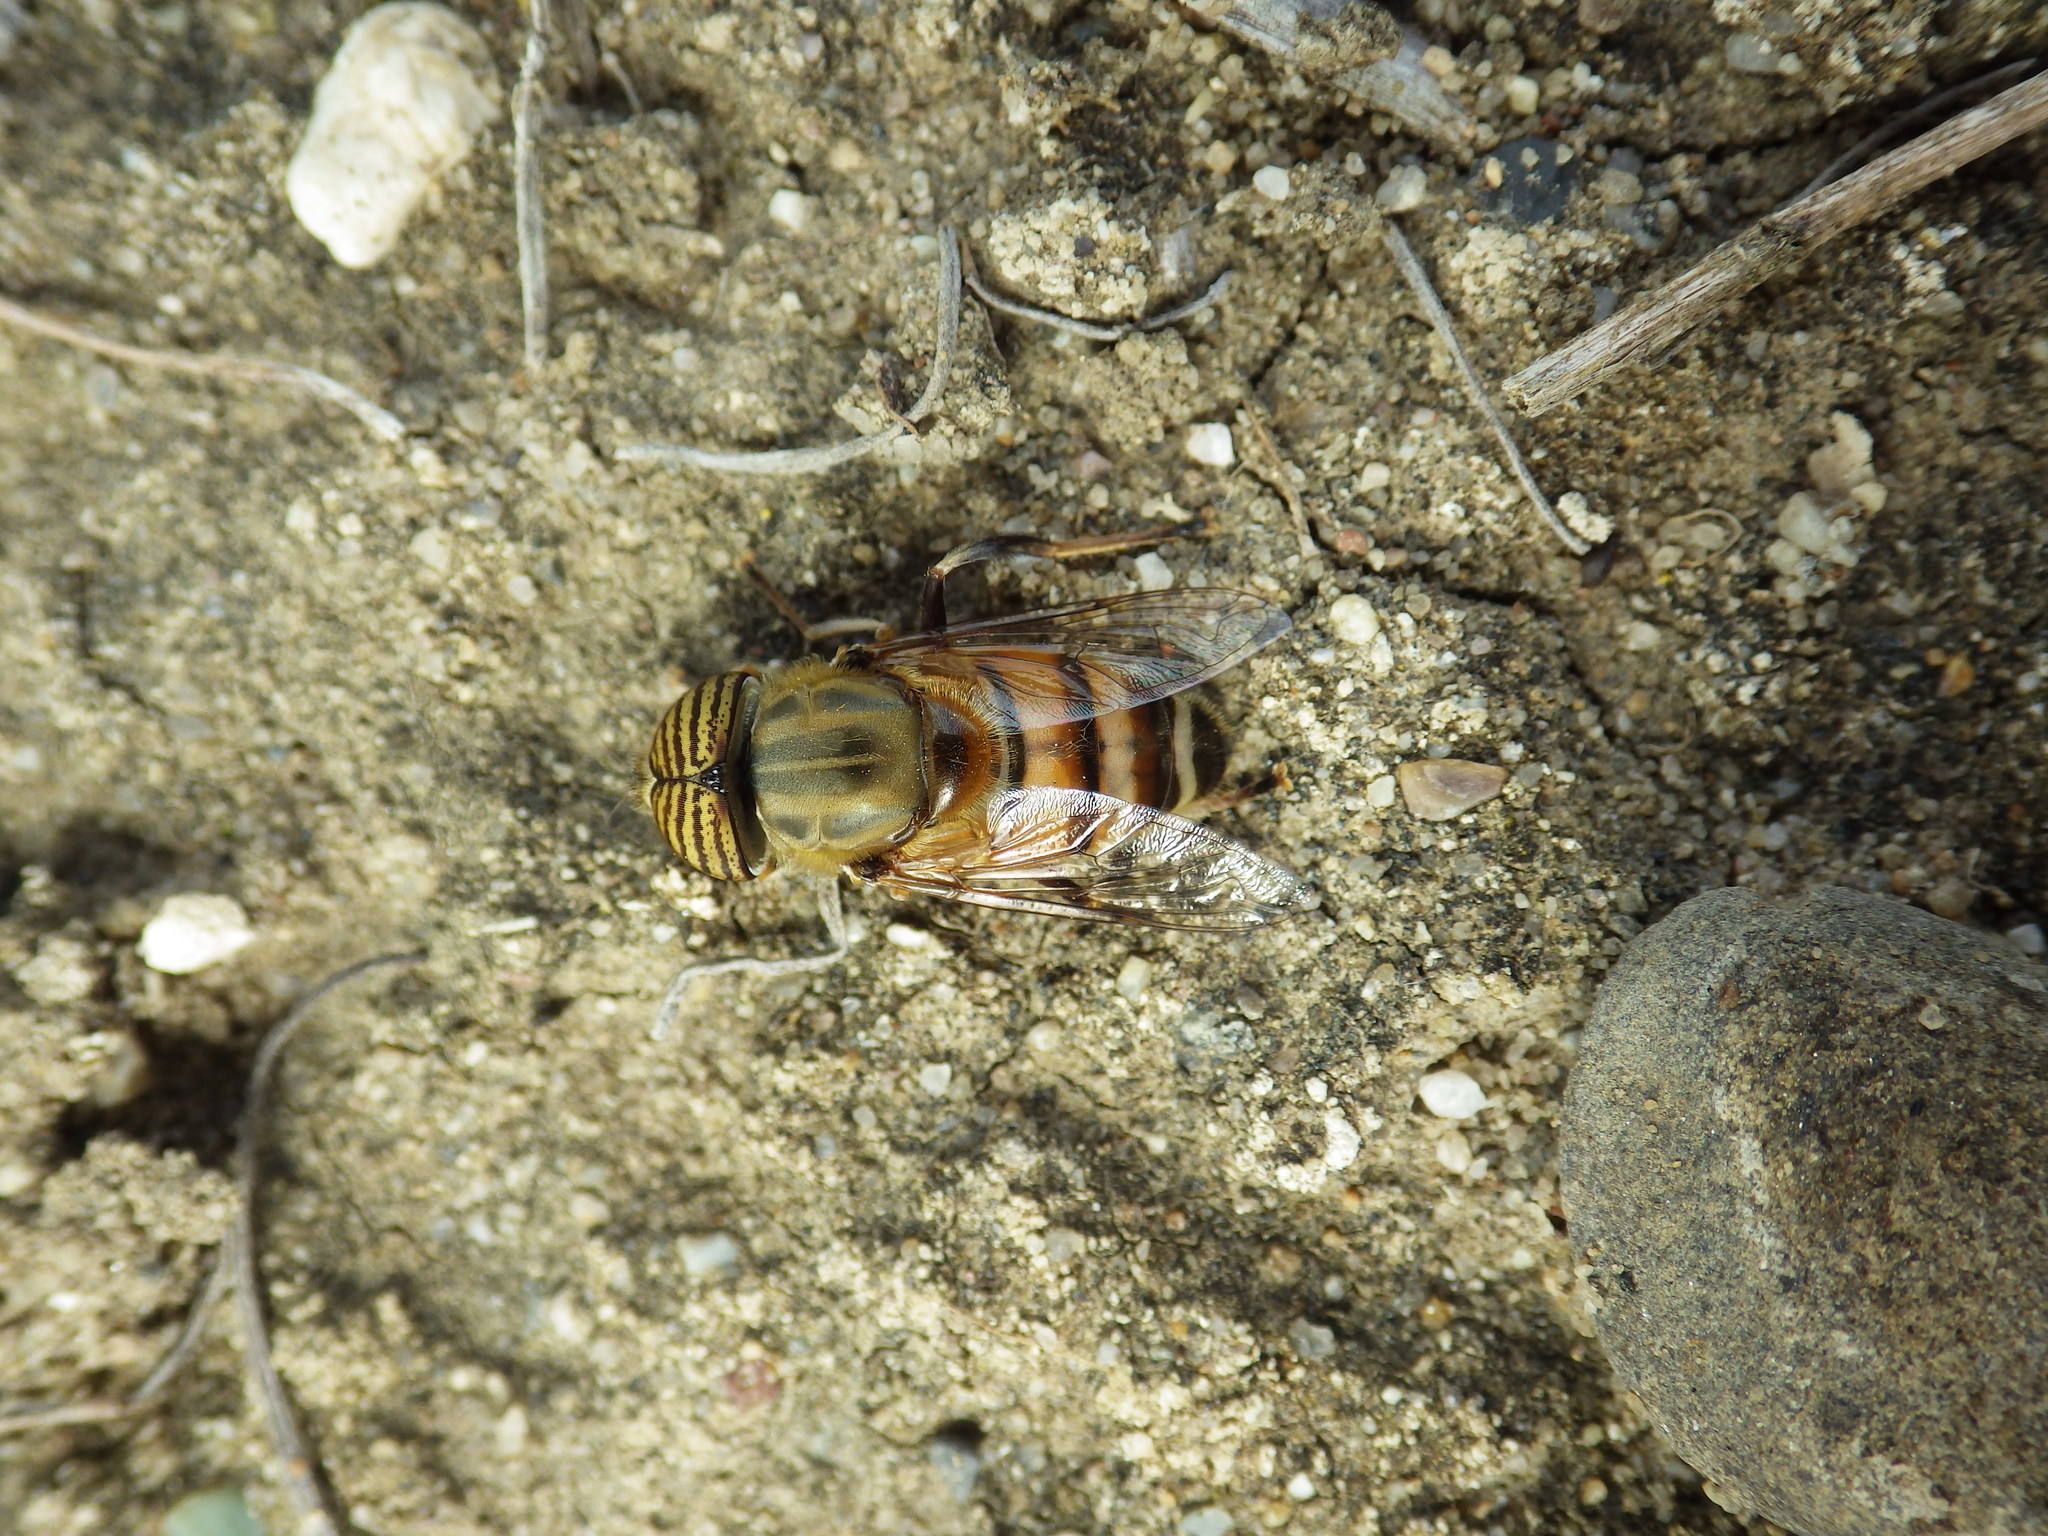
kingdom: Animalia
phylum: Arthropoda
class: Insecta
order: Diptera
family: Syrphidae
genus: Eristalinus
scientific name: Eristalinus taeniops
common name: Syrphid fly
